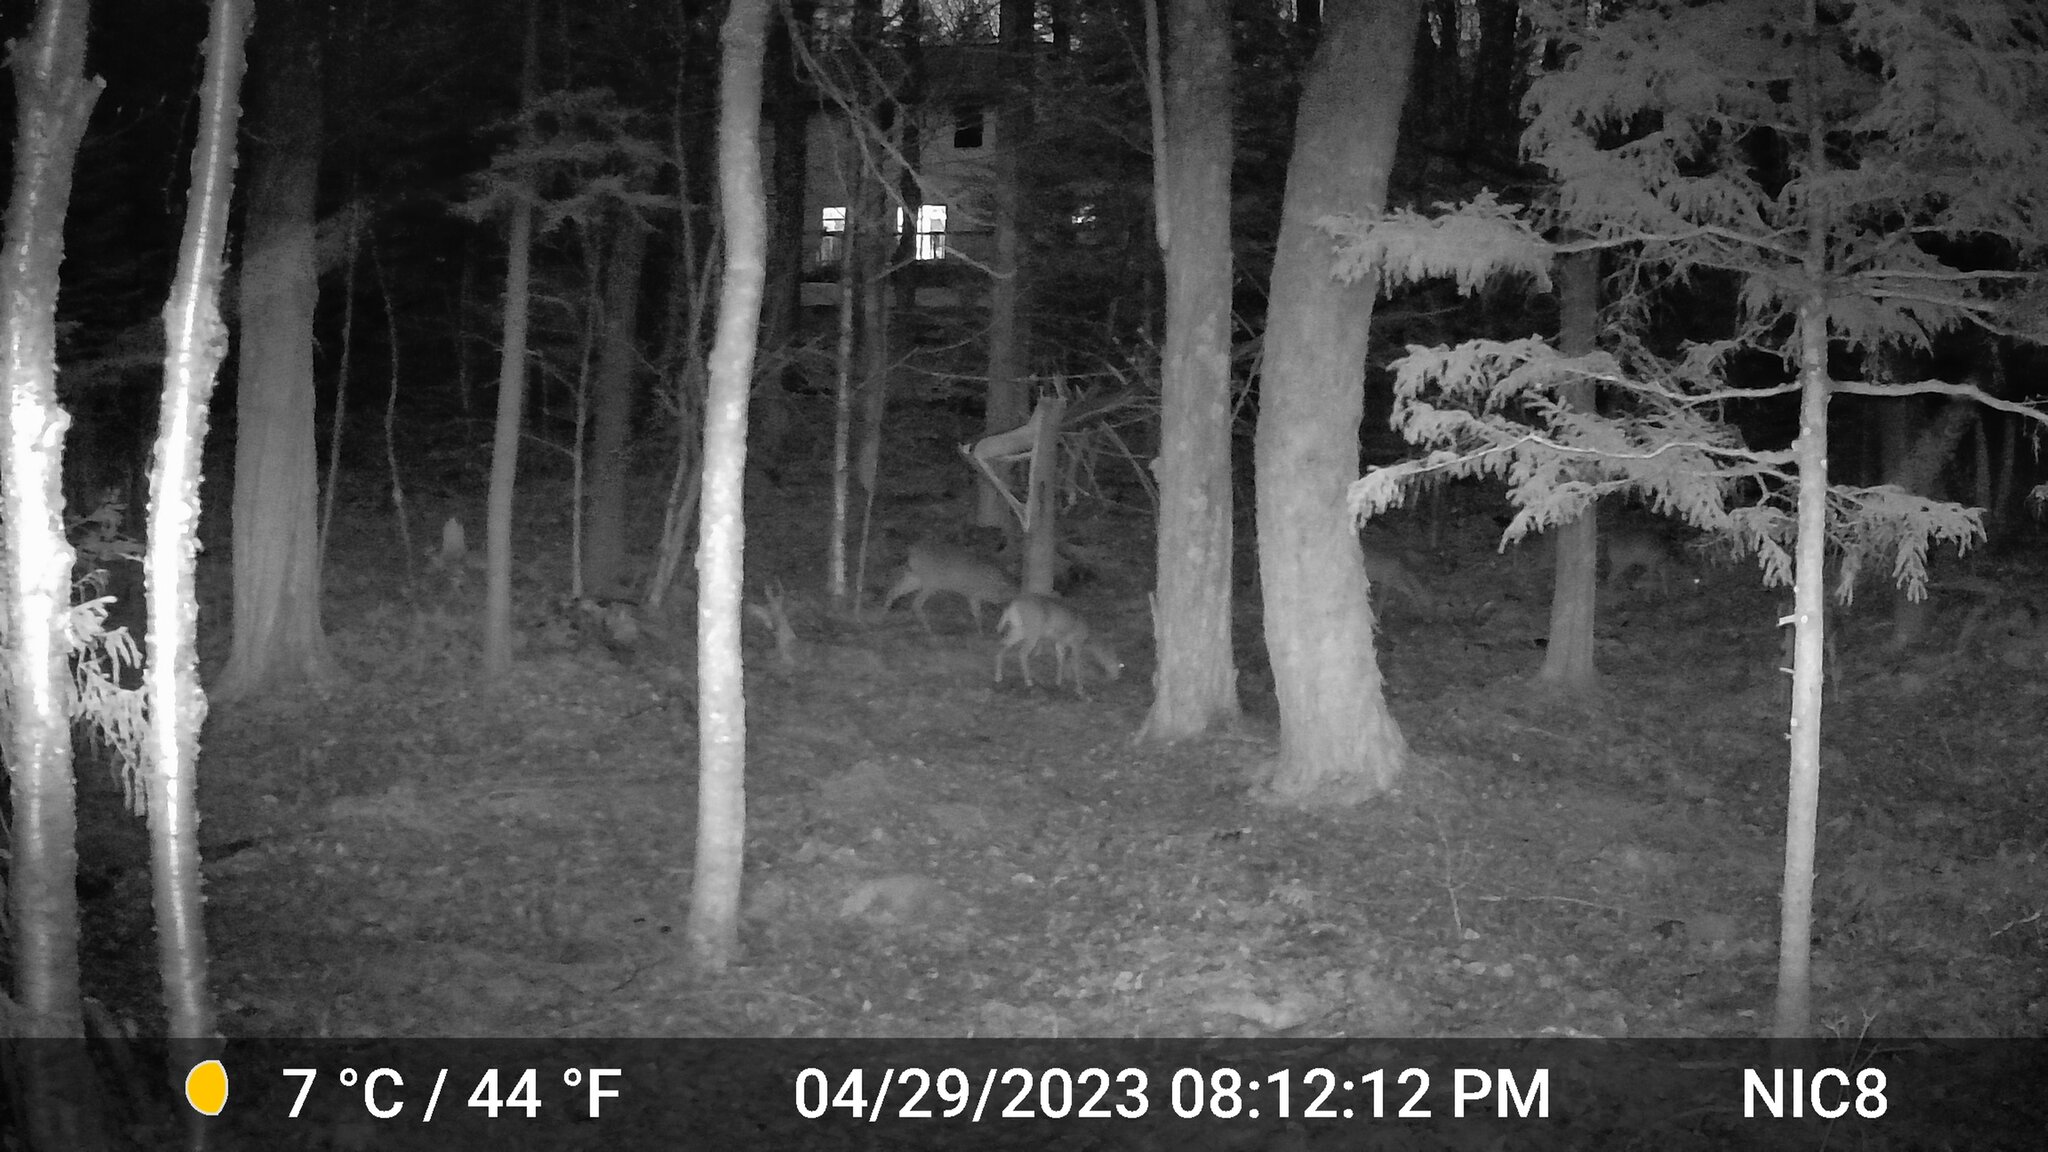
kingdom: Animalia
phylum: Chordata
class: Mammalia
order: Artiodactyla
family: Cervidae
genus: Odocoileus
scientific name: Odocoileus virginianus
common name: White-tailed deer
